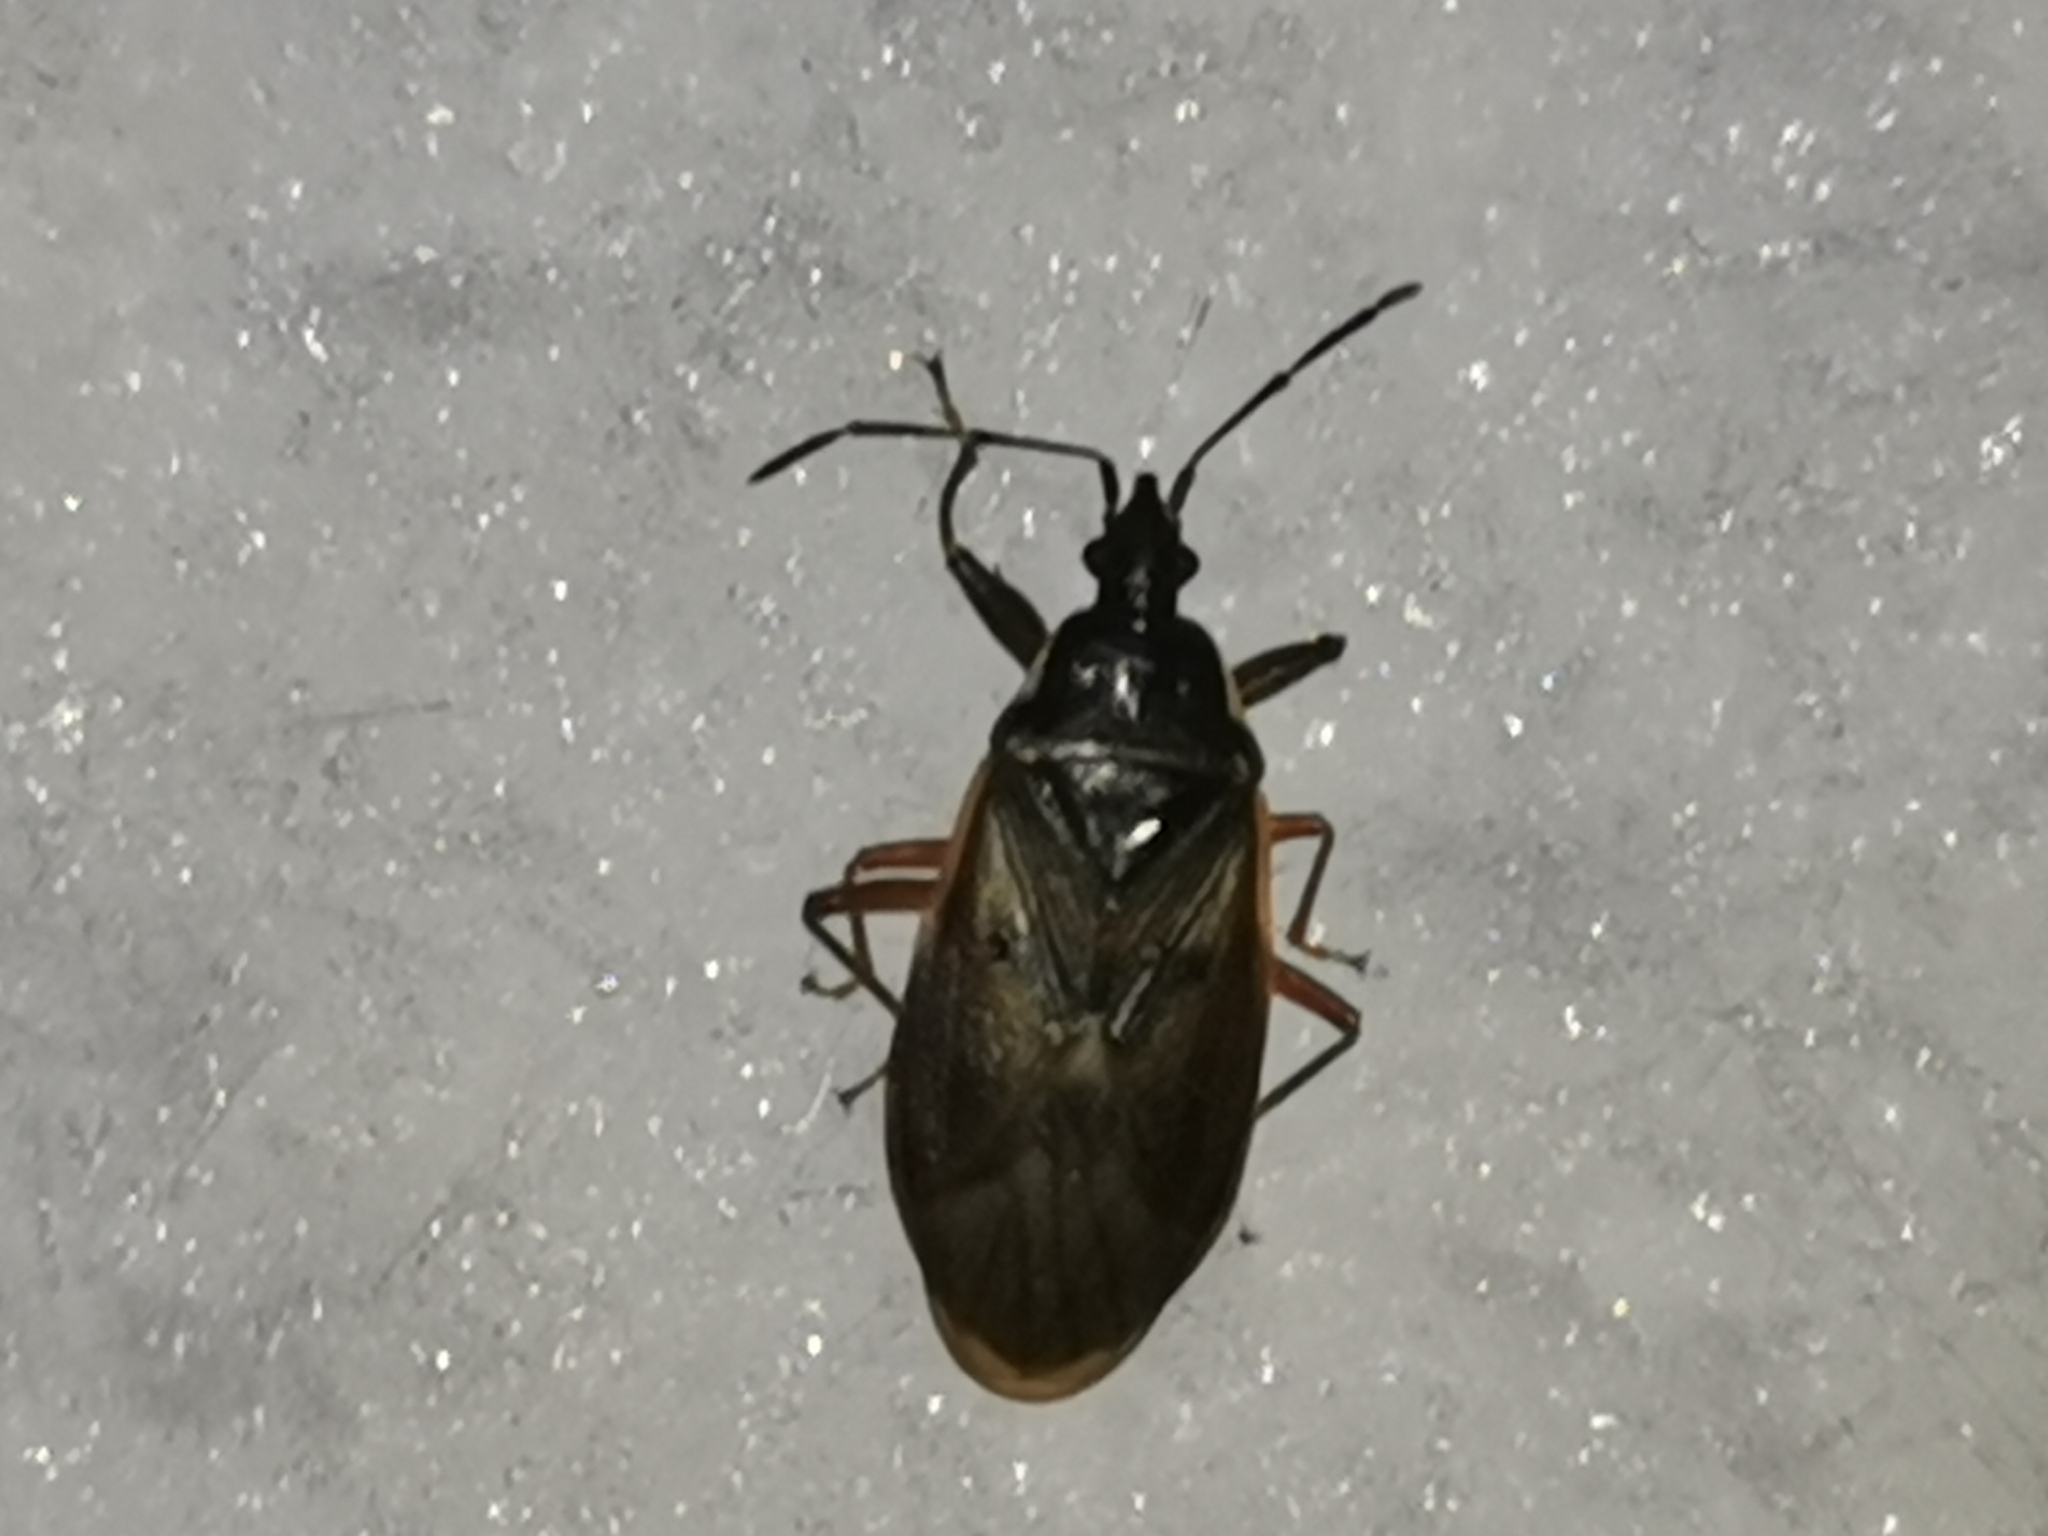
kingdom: Animalia
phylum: Arthropoda
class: Insecta
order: Hemiptera
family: Rhyparochromidae
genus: Gastrodes
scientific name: Gastrodes abietum
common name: Spruce cone bug
